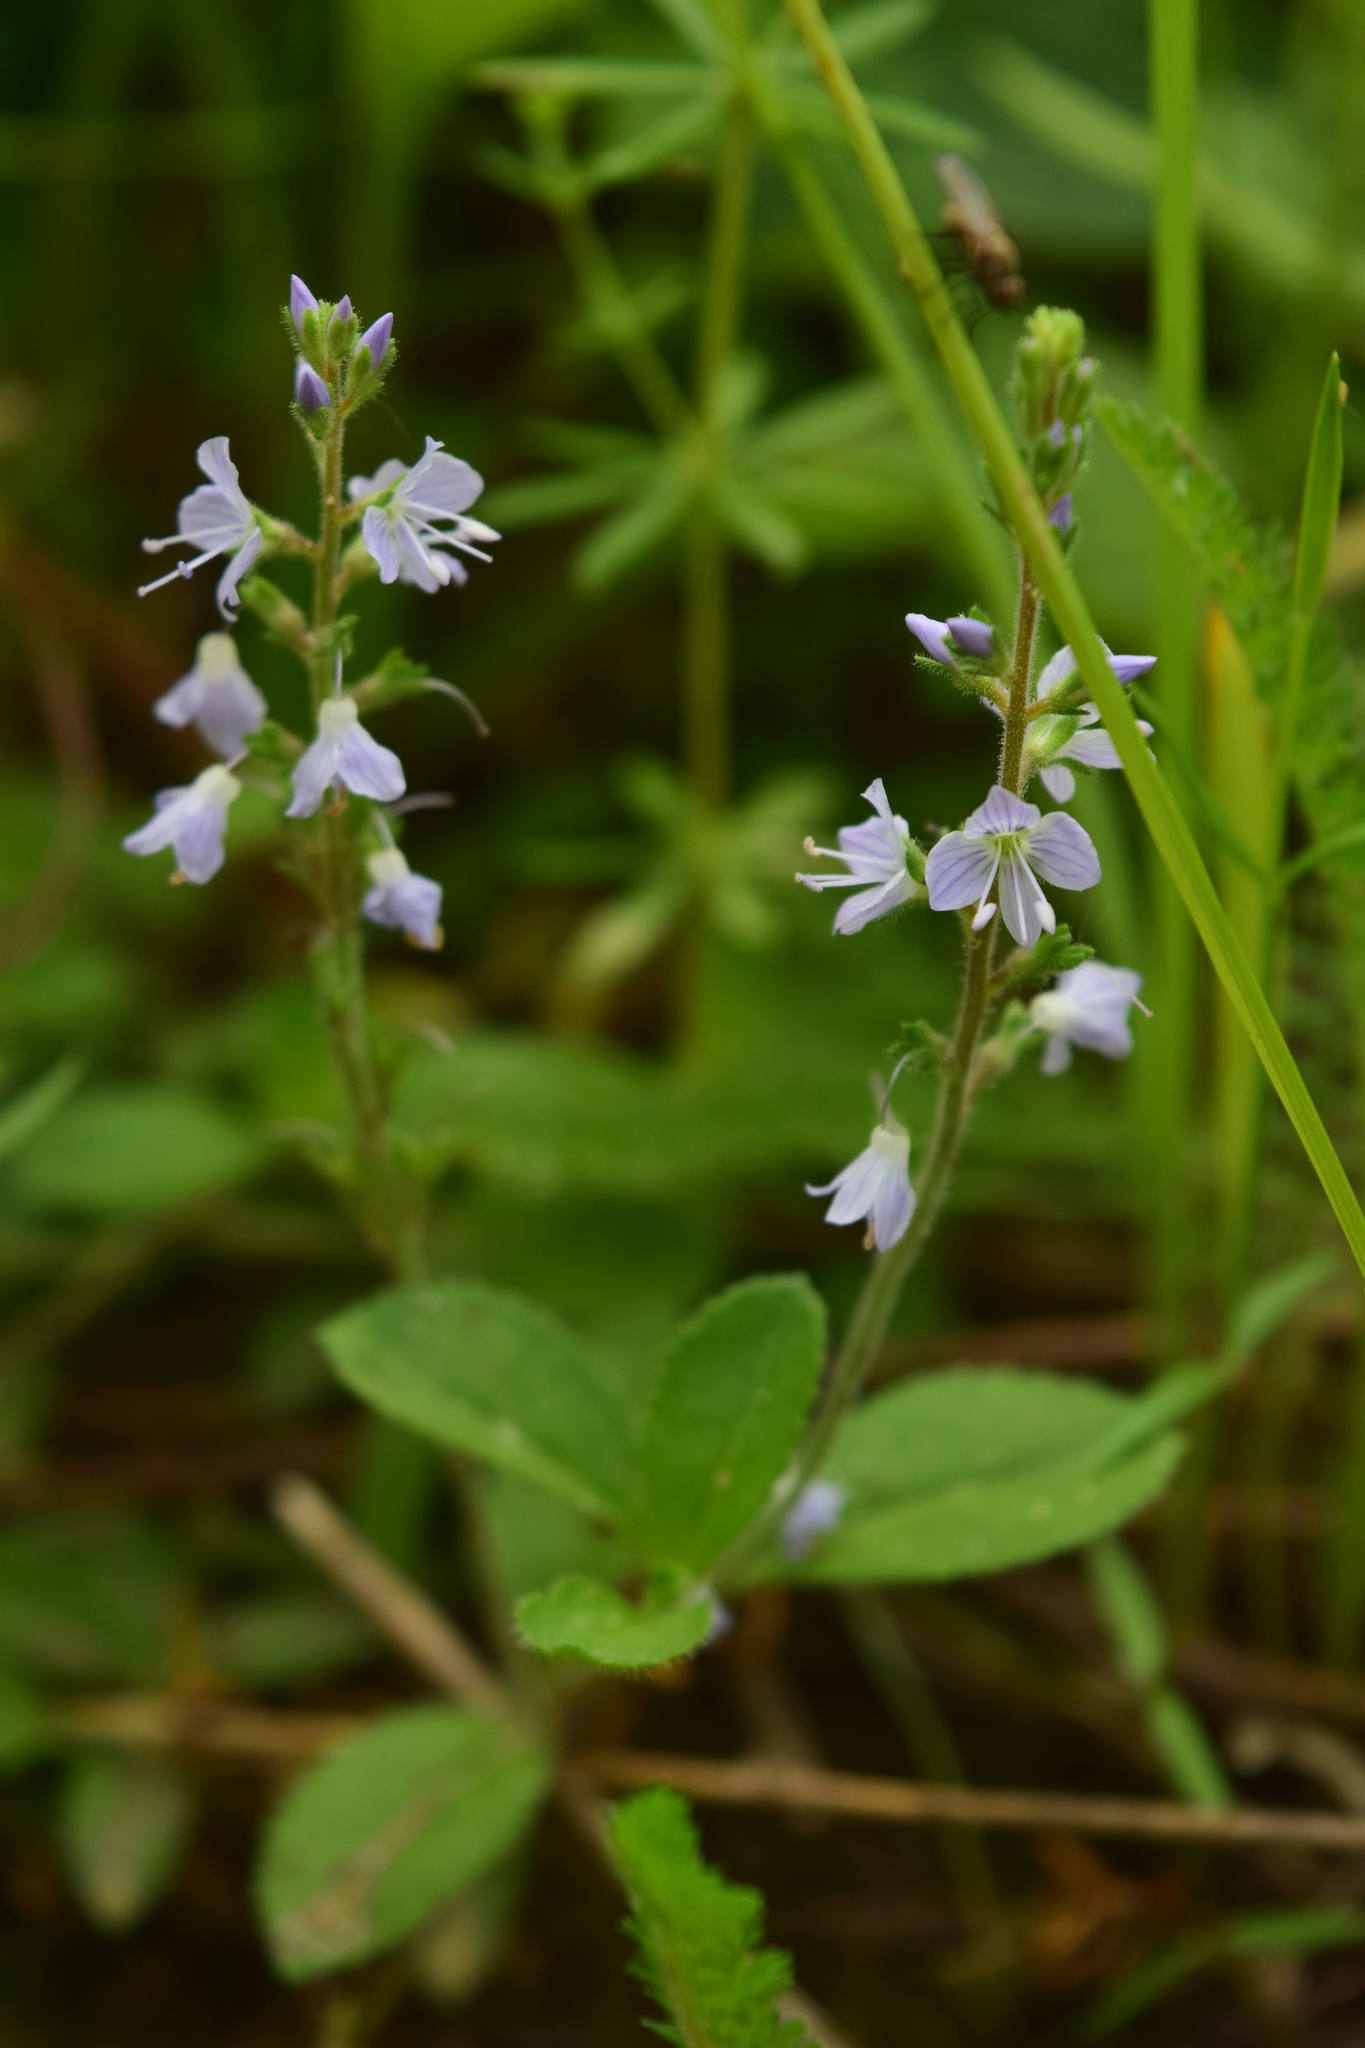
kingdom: Plantae
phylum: Tracheophyta
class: Magnoliopsida
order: Lamiales
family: Plantaginaceae
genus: Veronica
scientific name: Veronica officinalis
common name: Common speedwell
